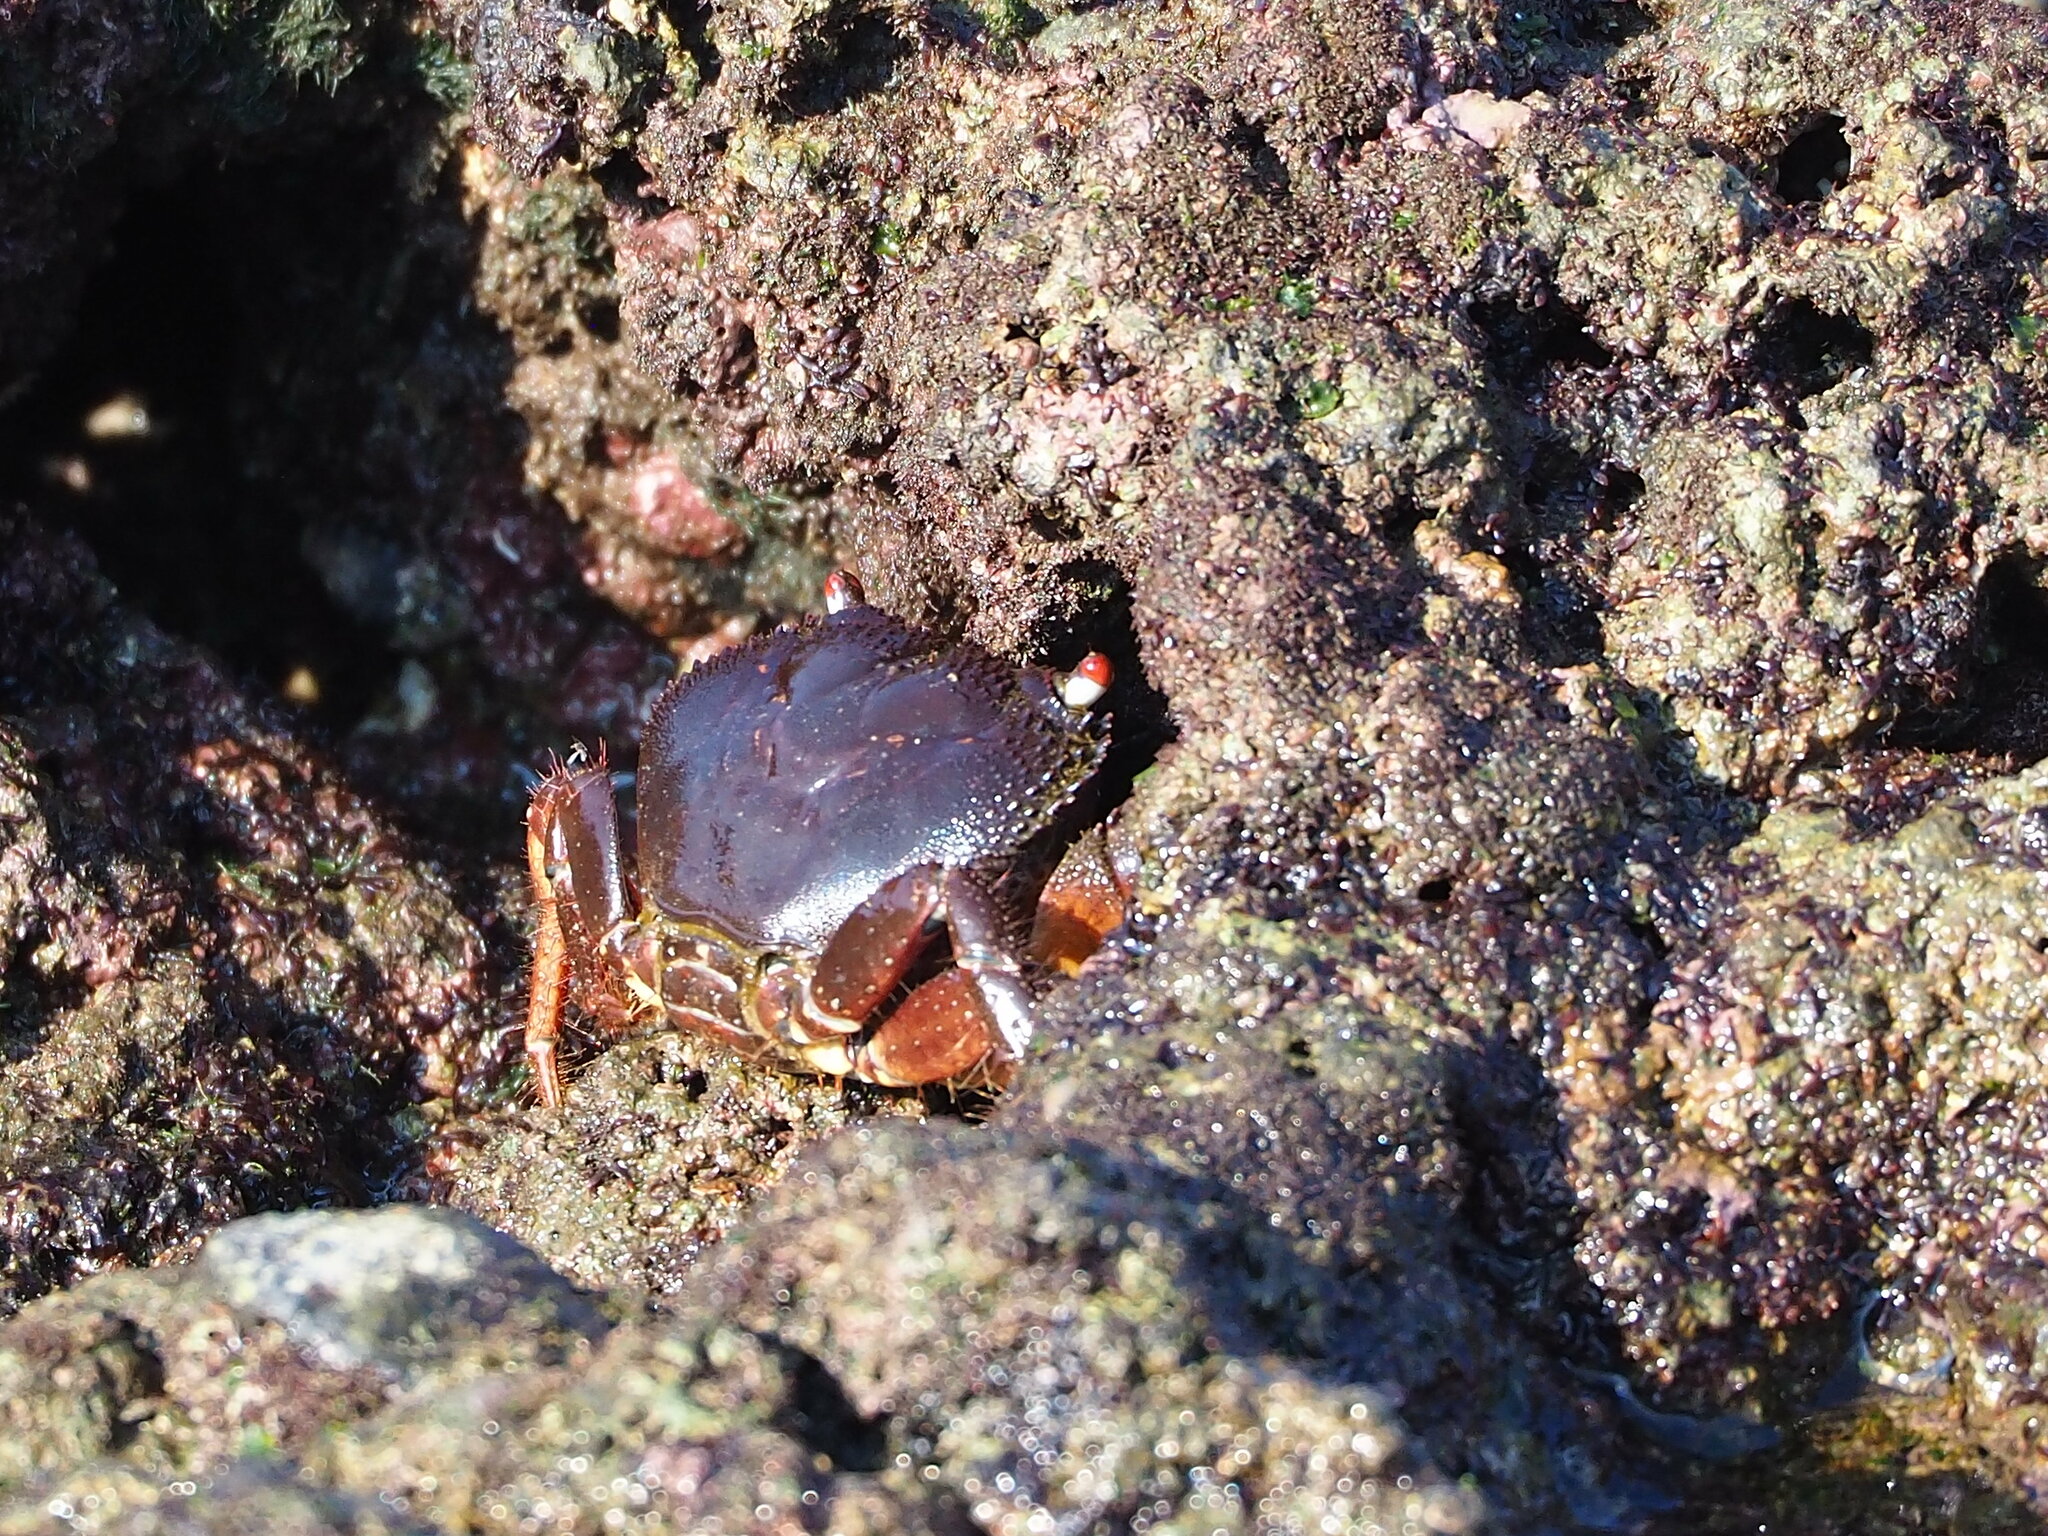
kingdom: Animalia
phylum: Arthropoda
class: Malacostraca
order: Decapoda
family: Eriphiidae
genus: Eriphia
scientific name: Eriphia ferox
